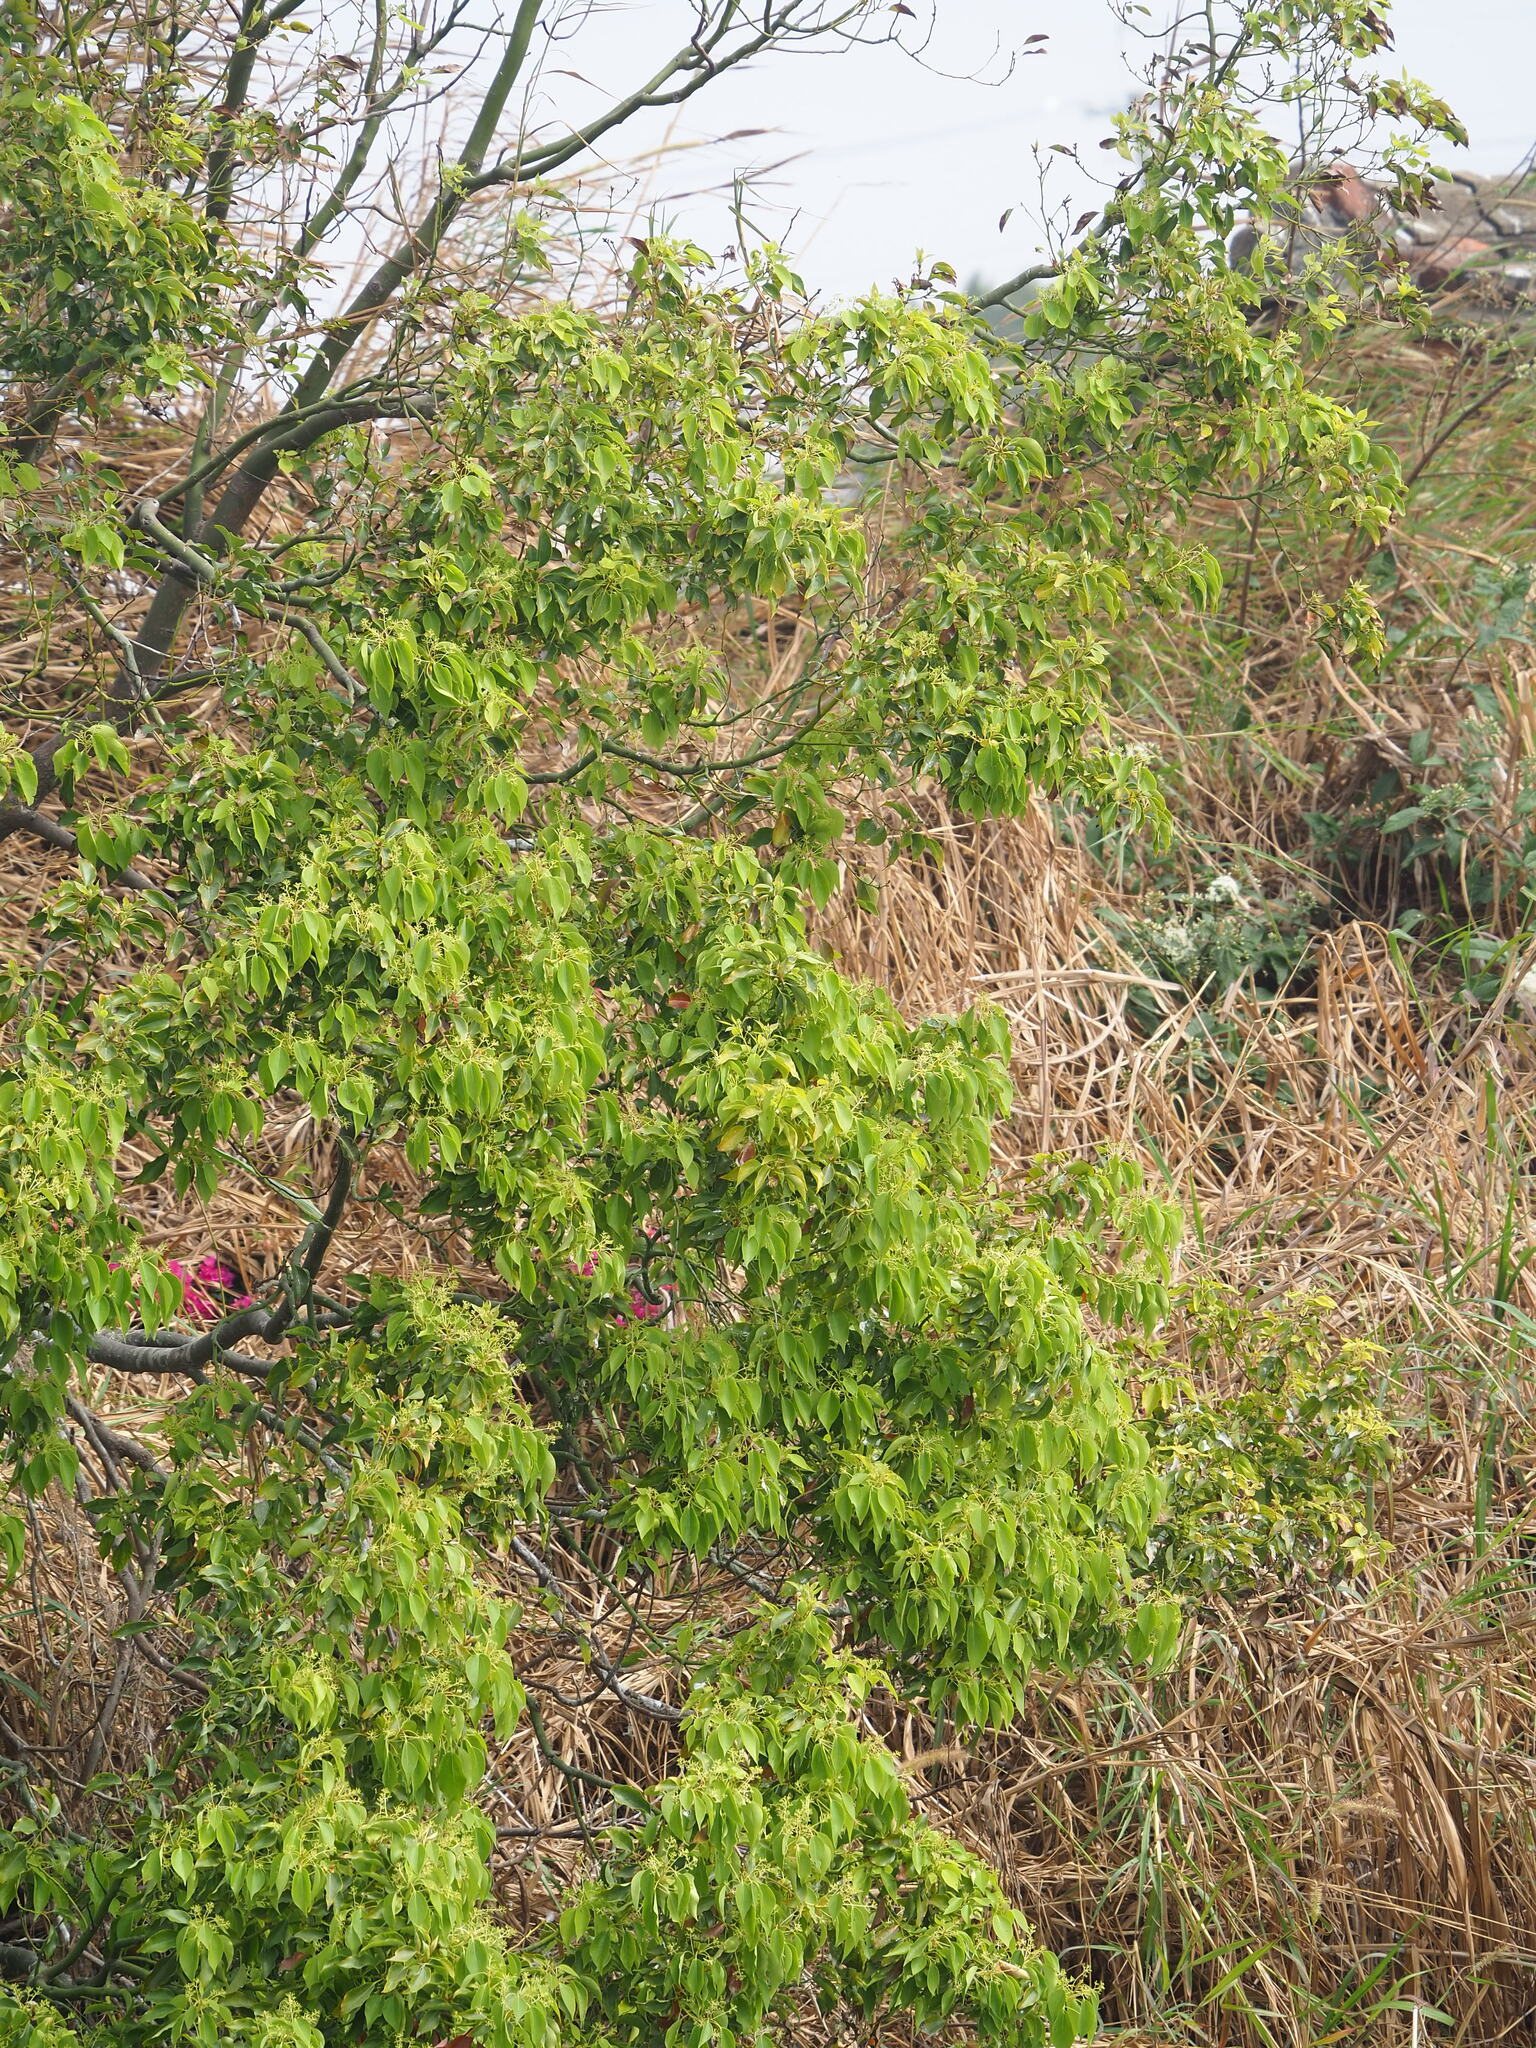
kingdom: Plantae
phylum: Tracheophyta
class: Magnoliopsida
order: Laurales
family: Lauraceae
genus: Cinnamomum
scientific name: Cinnamomum camphora
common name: Camphortree
